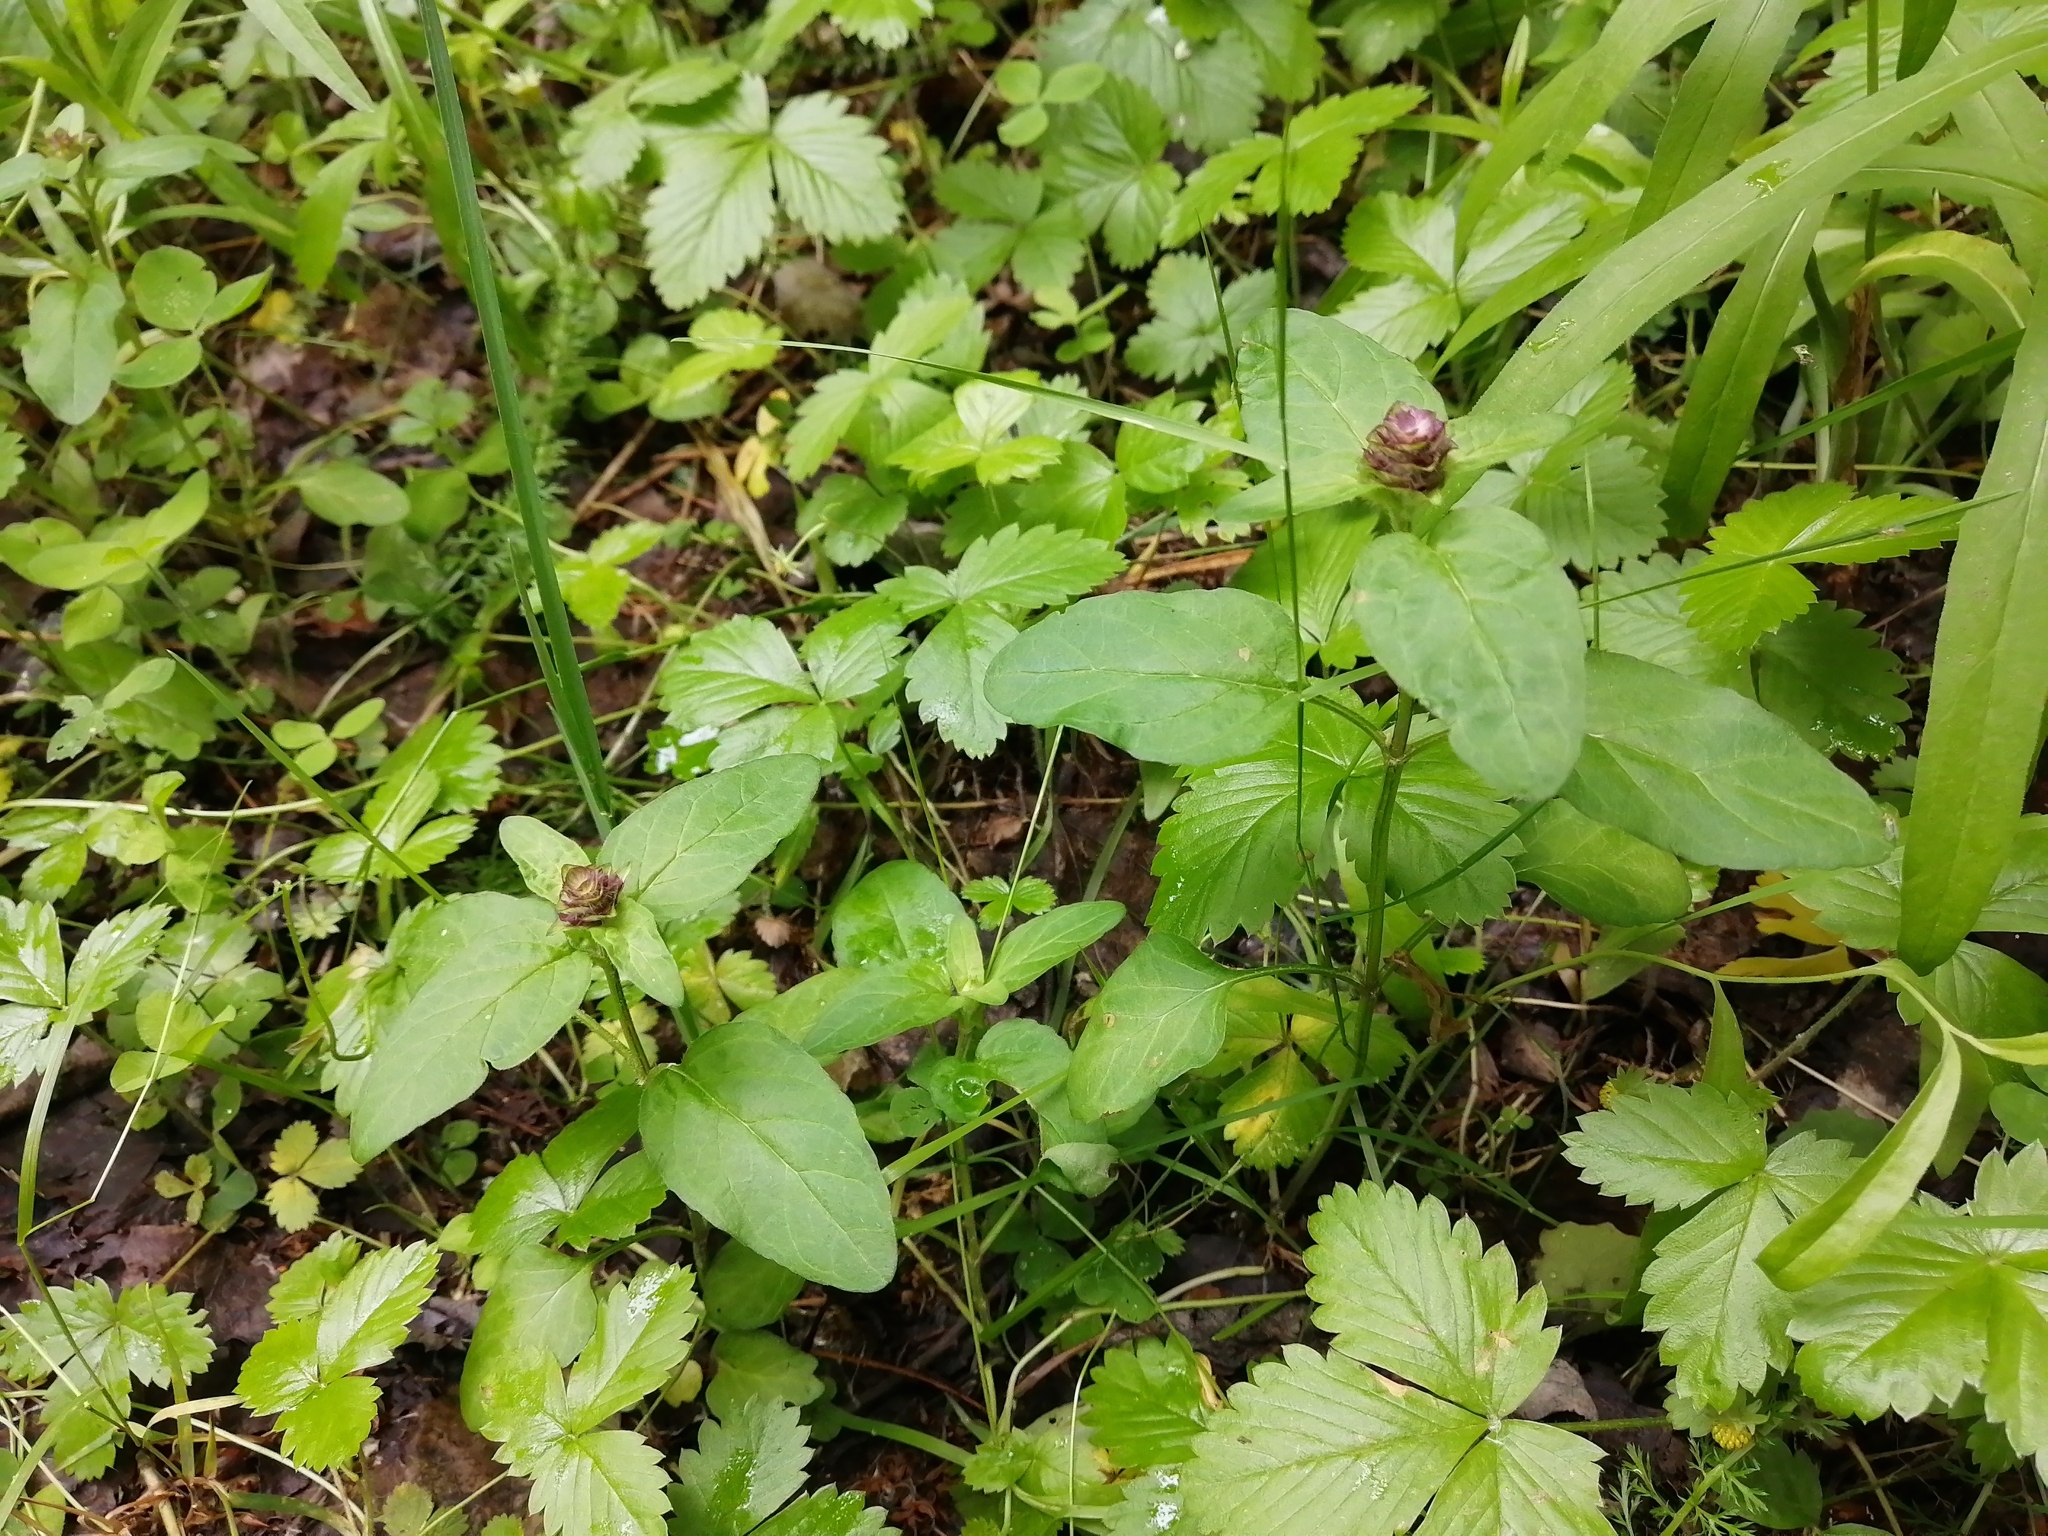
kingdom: Plantae
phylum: Tracheophyta
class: Magnoliopsida
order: Lamiales
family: Lamiaceae
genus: Prunella
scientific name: Prunella vulgaris
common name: Heal-all
